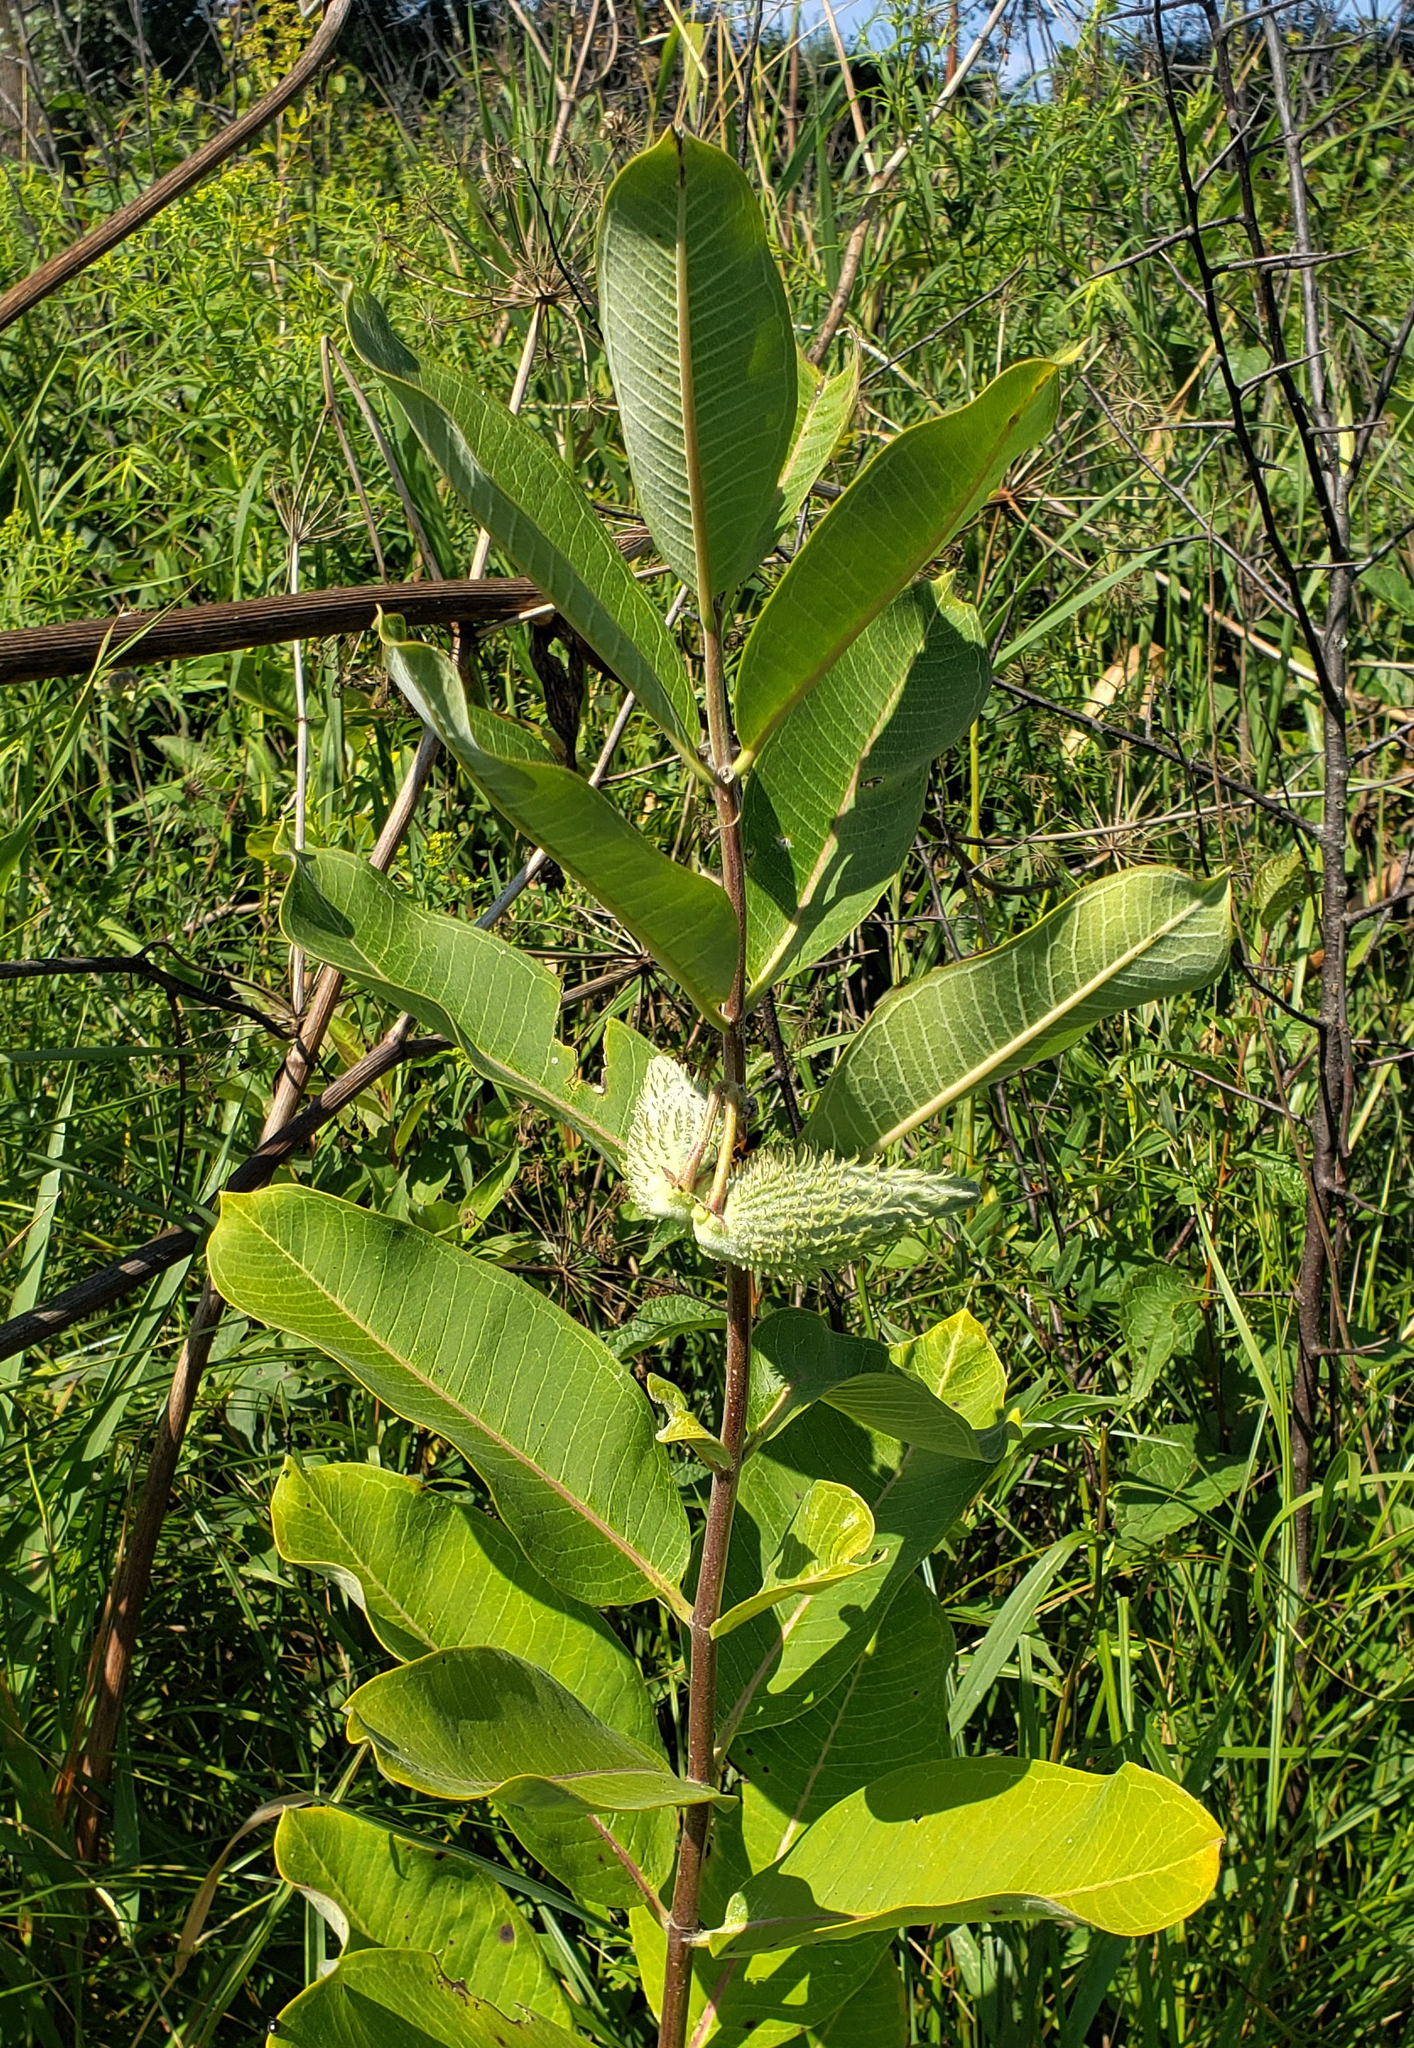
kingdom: Plantae
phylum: Tracheophyta
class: Magnoliopsida
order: Gentianales
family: Apocynaceae
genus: Asclepias
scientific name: Asclepias syriaca
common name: Common milkweed
